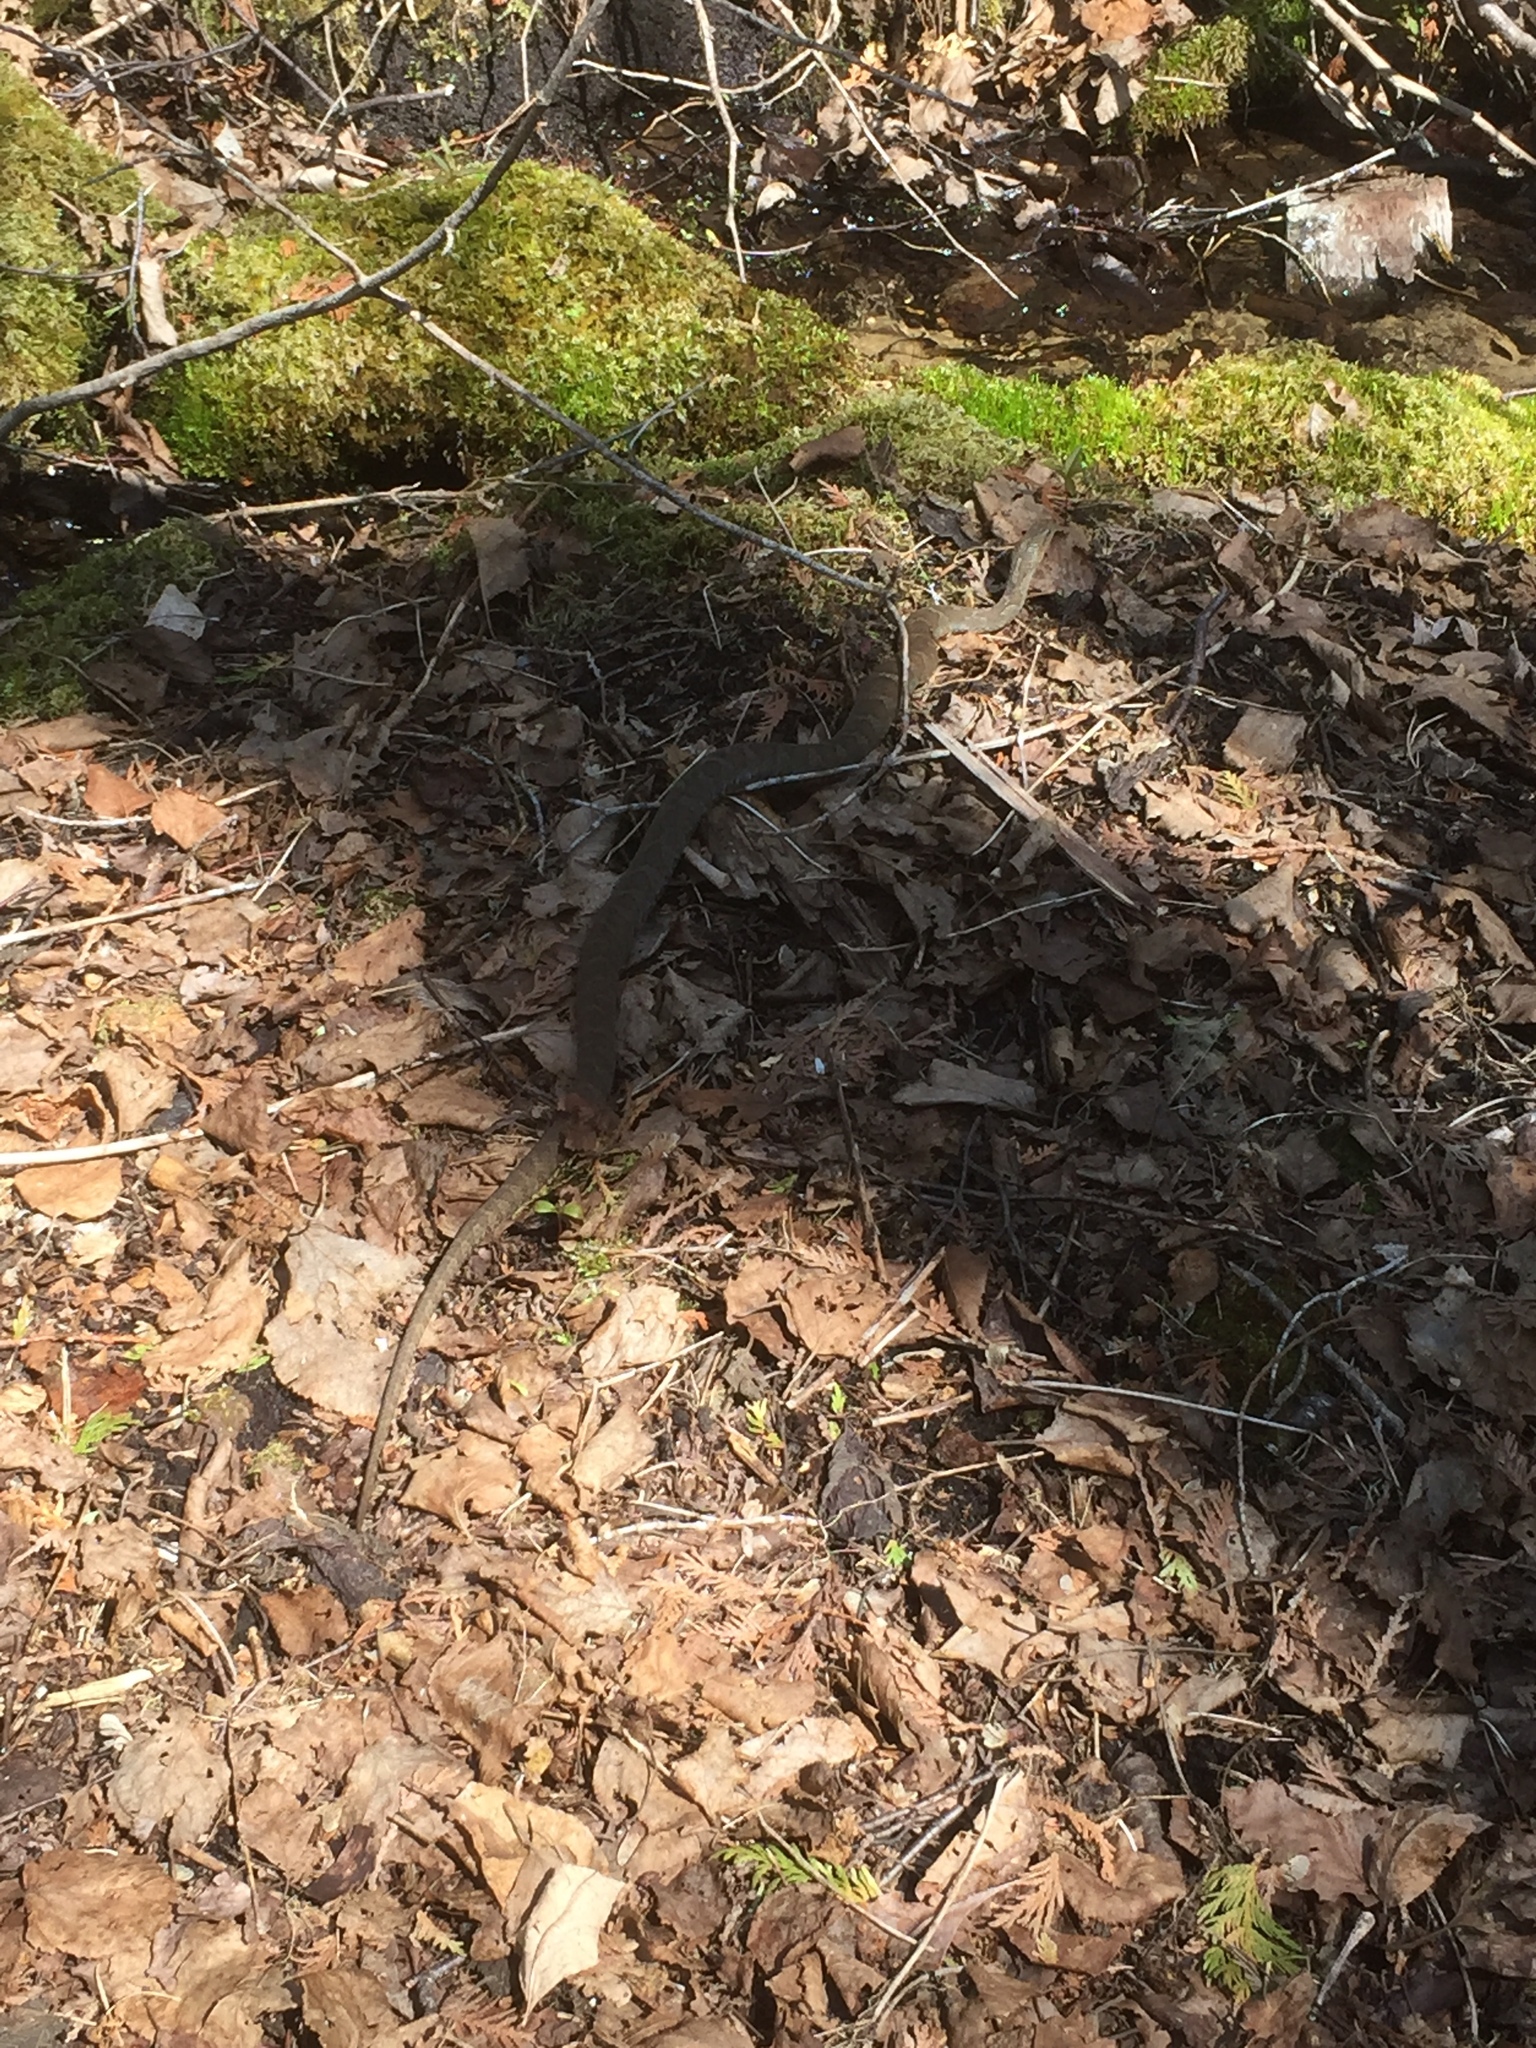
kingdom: Animalia
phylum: Chordata
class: Squamata
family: Colubridae
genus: Nerodia
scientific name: Nerodia sipedon
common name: Northern water snake
